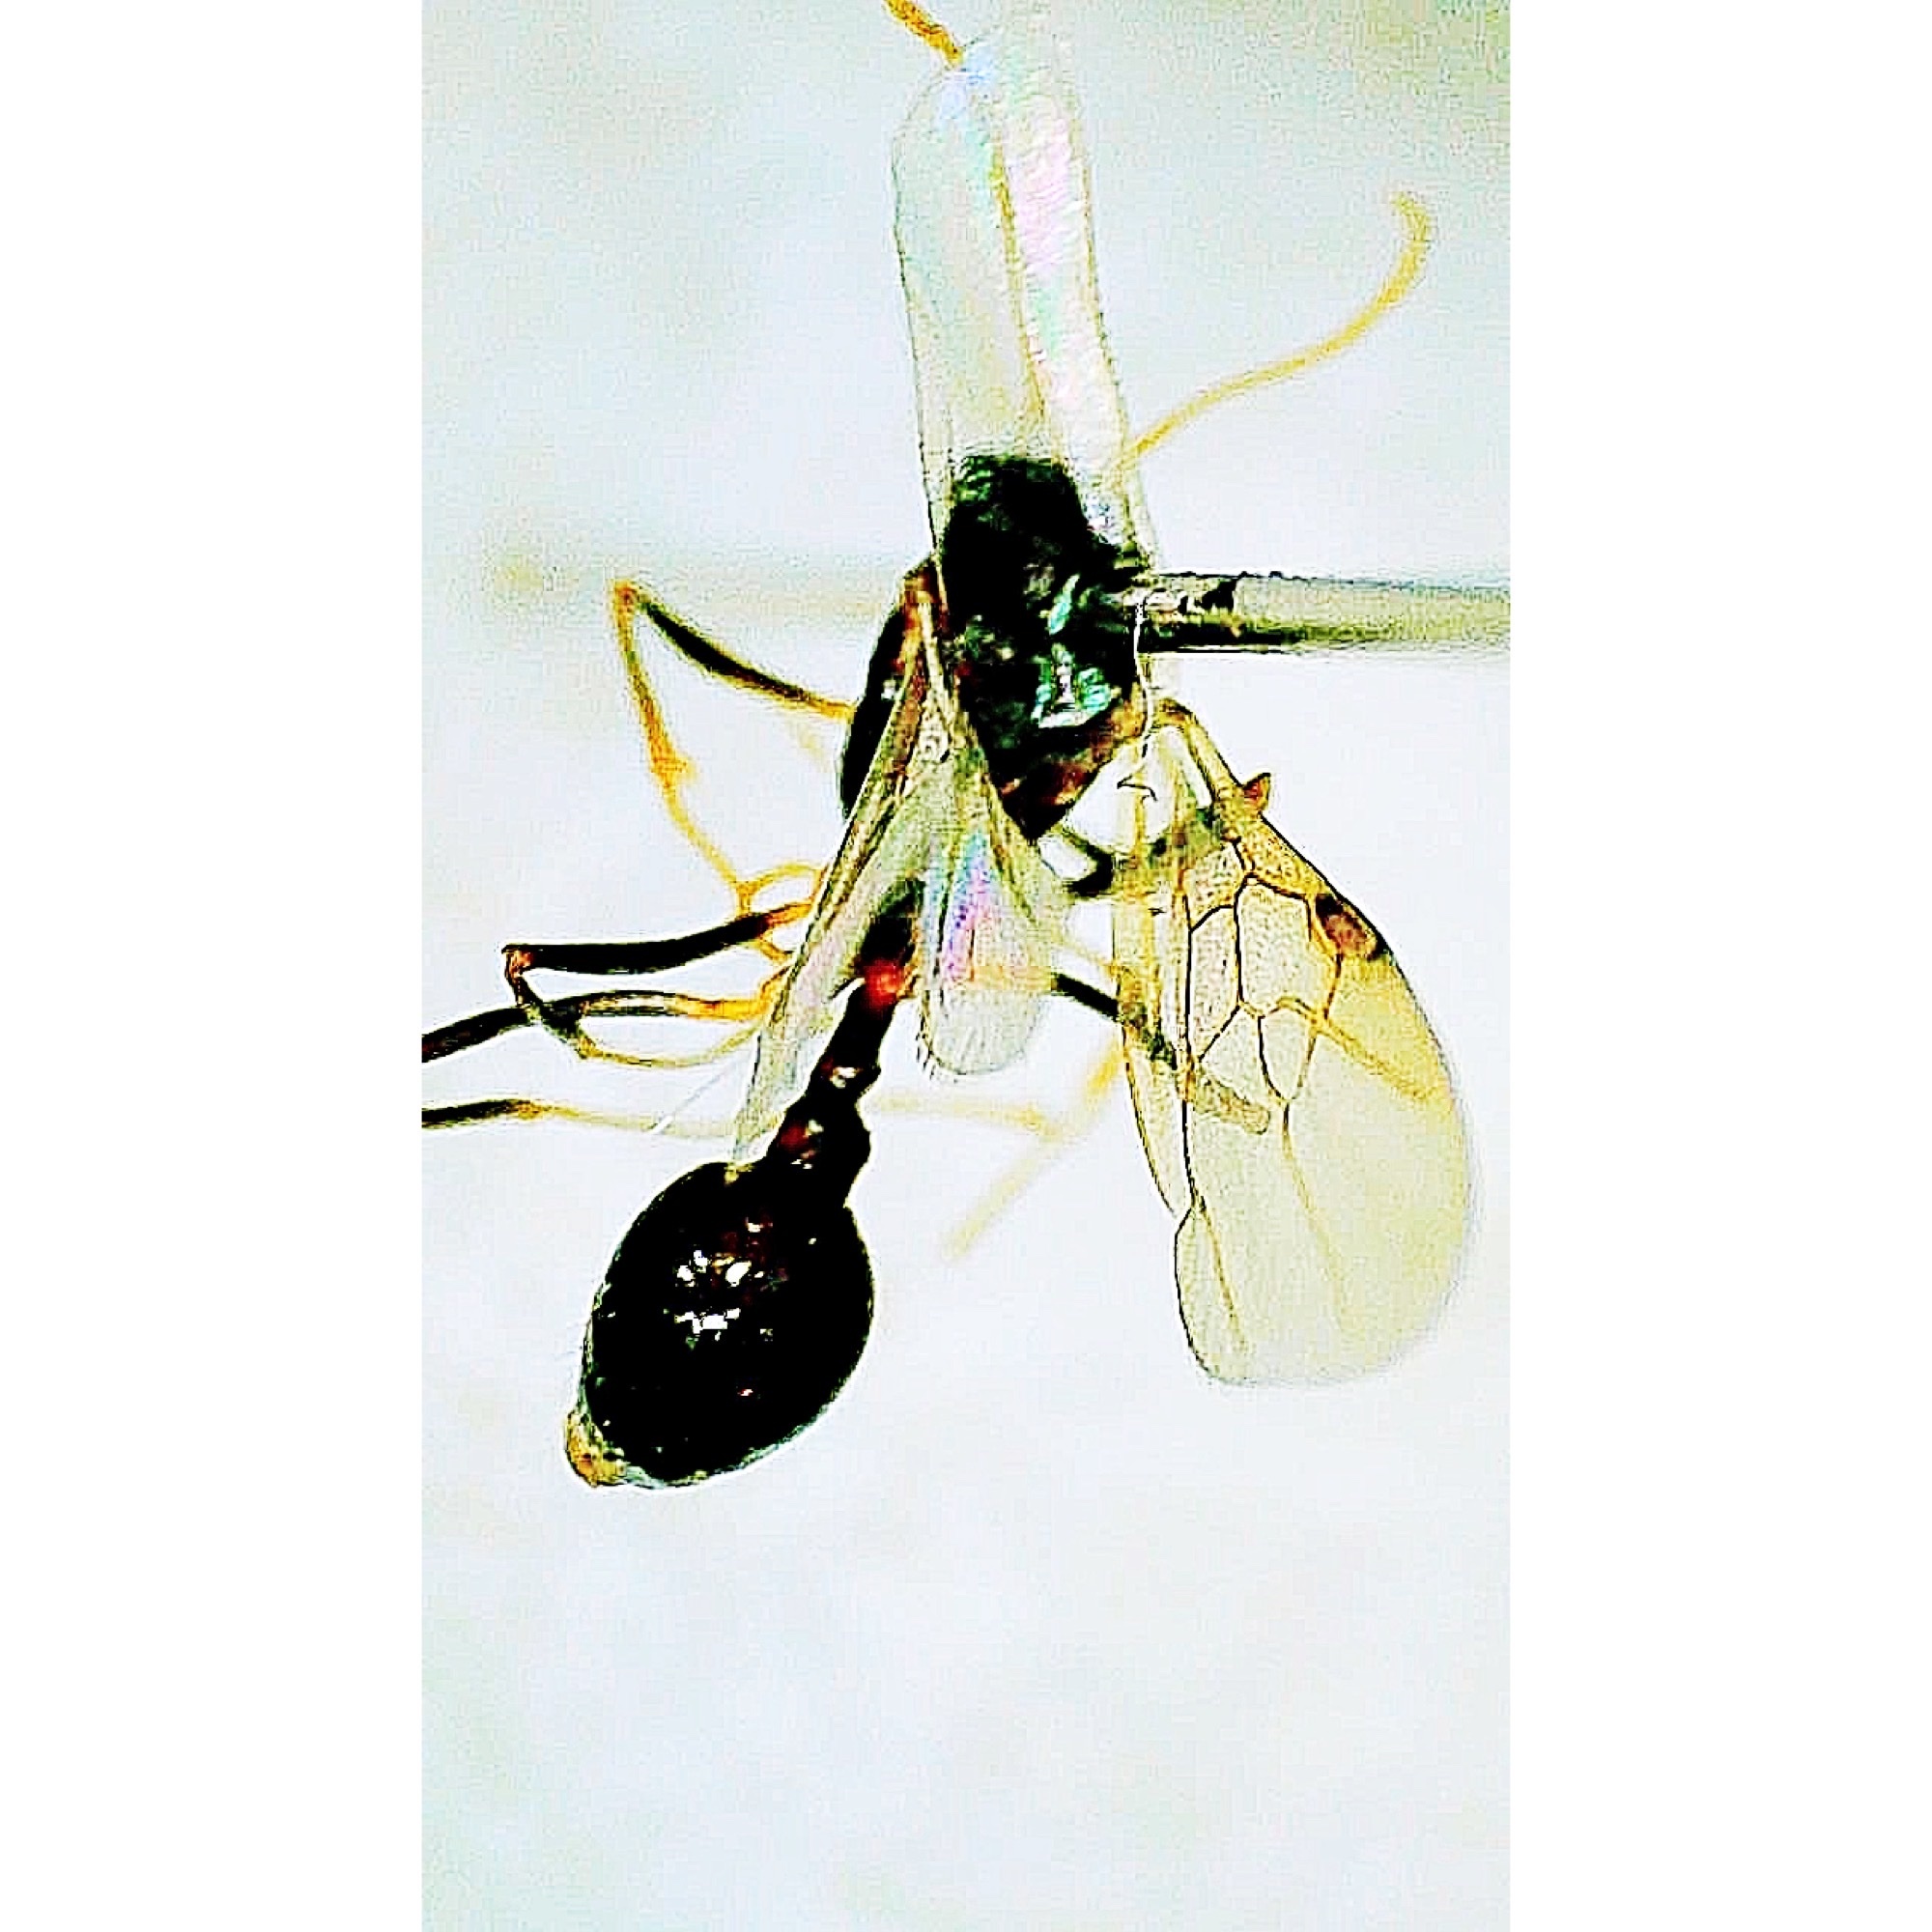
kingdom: Animalia
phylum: Arthropoda
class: Insecta
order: Hymenoptera
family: Formicidae
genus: Aphaenogaster
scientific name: Aphaenogaster lamellidens
